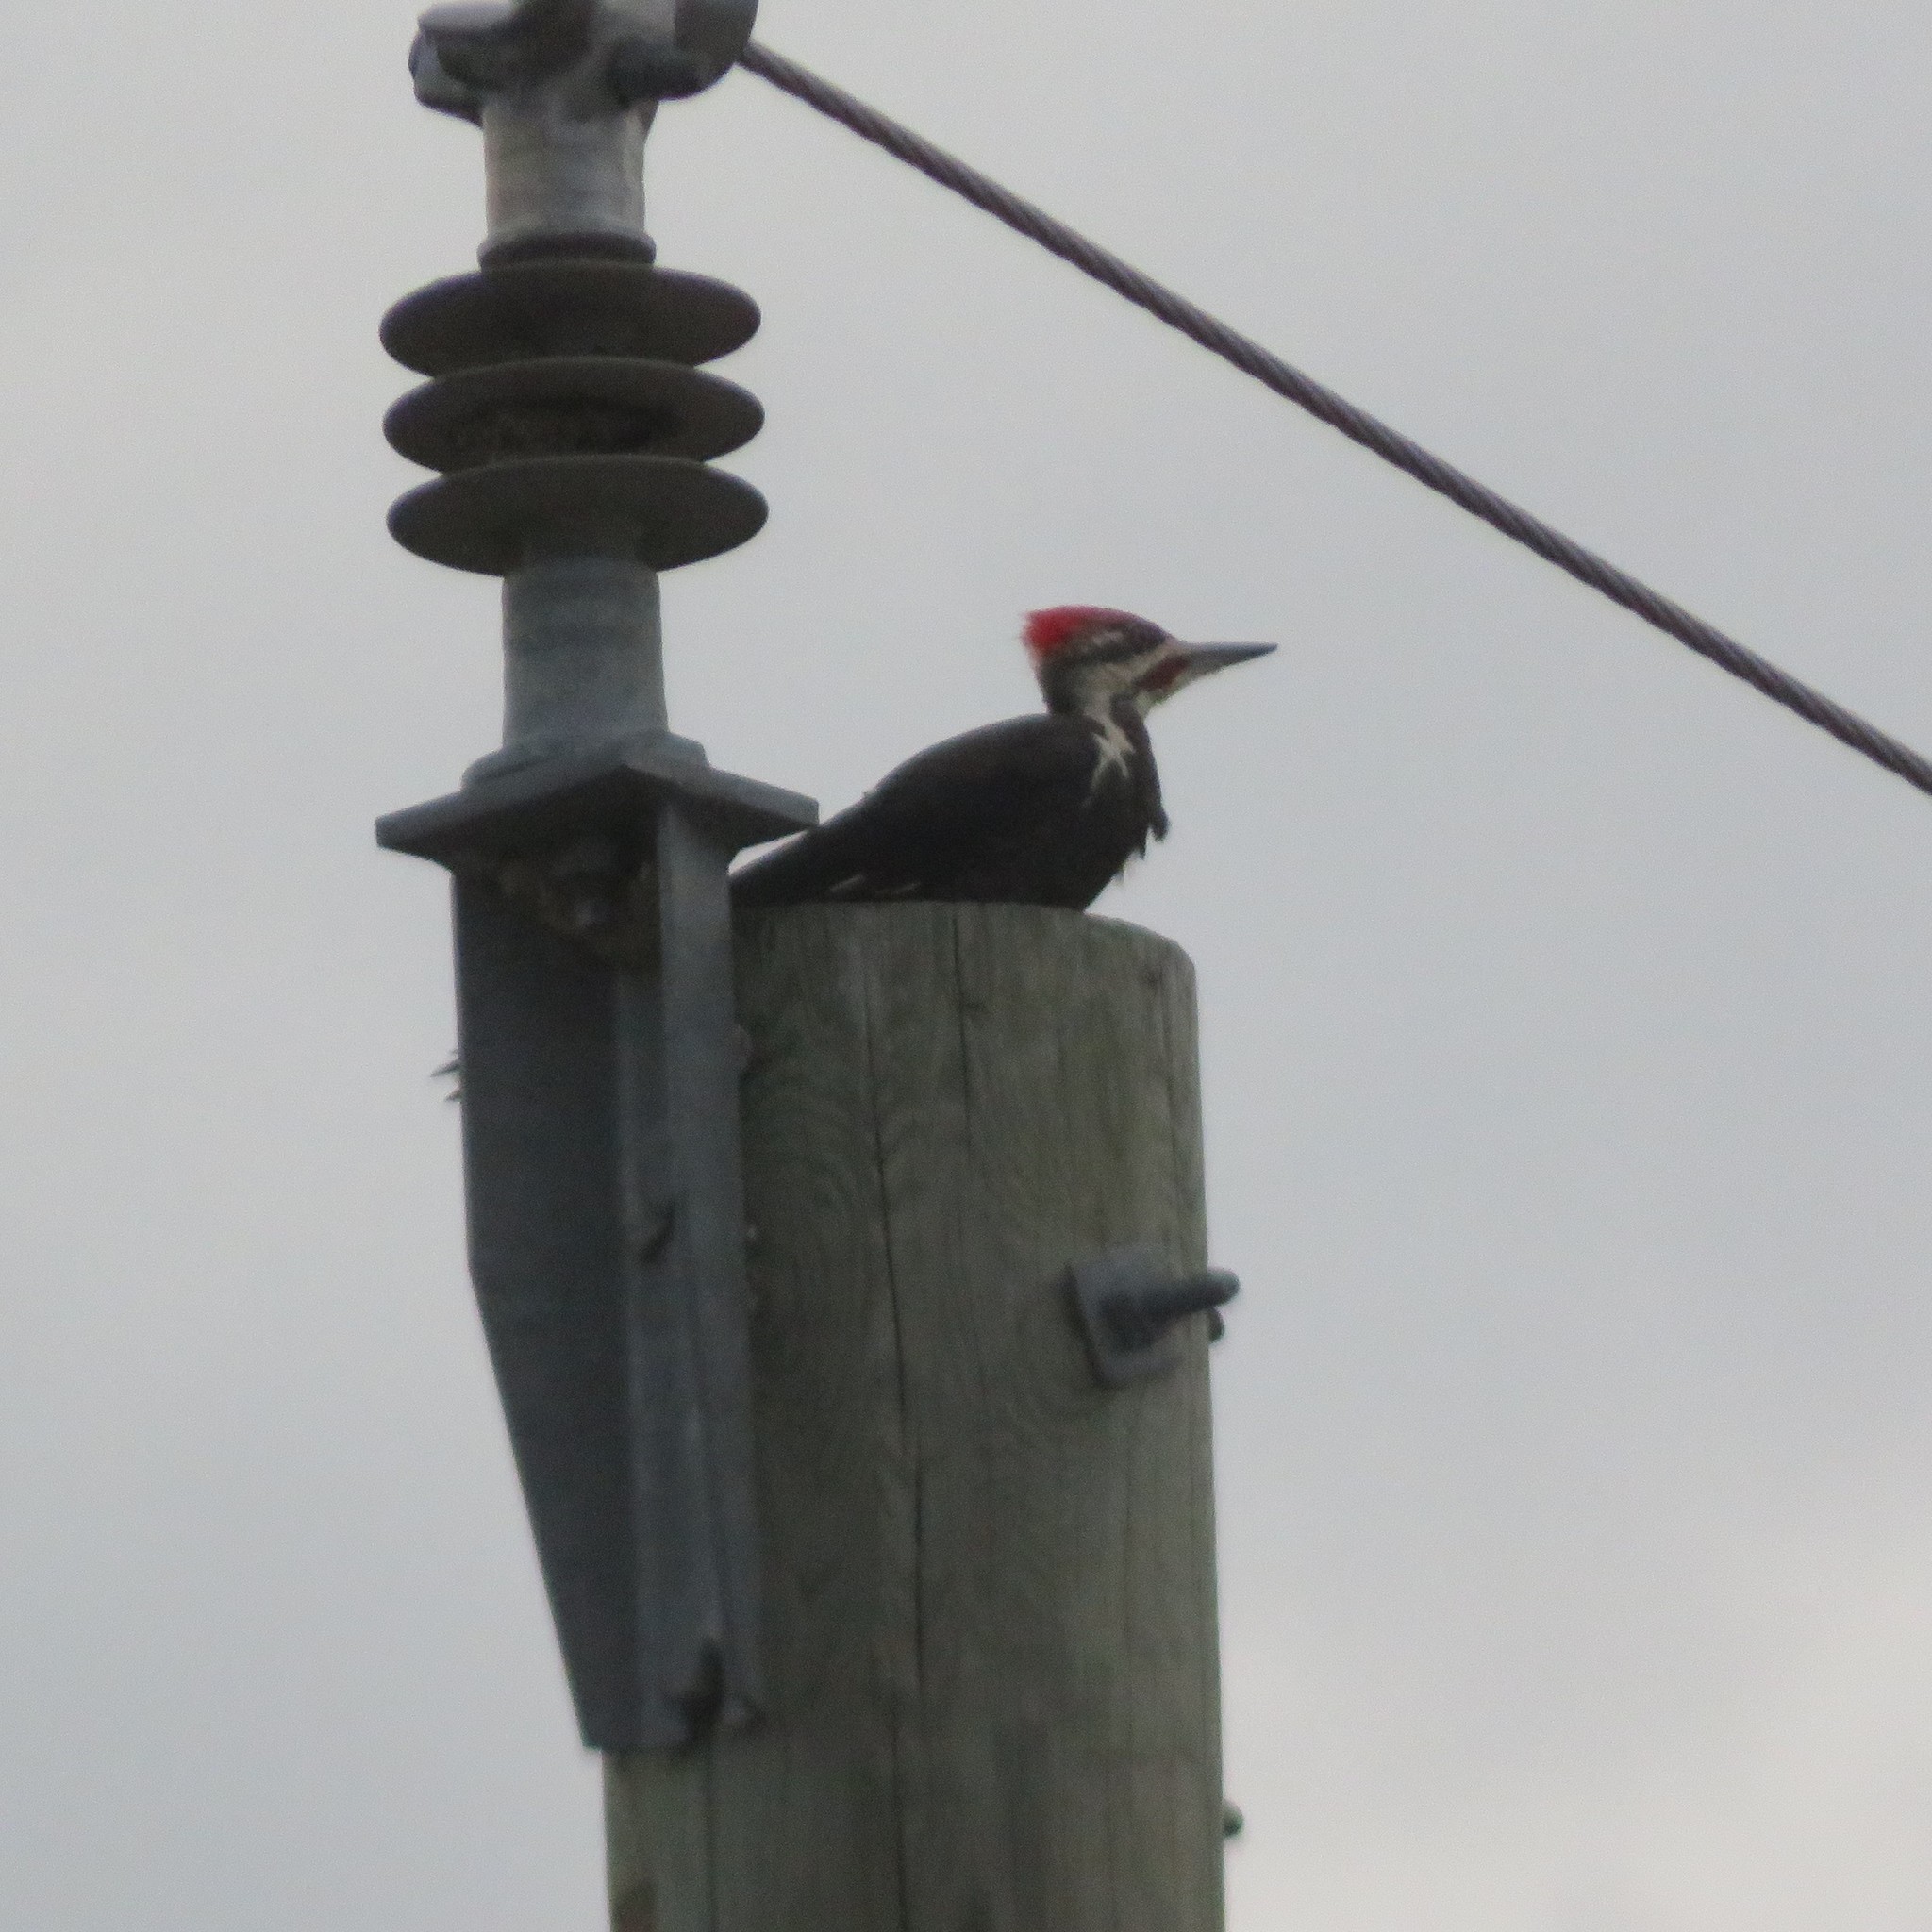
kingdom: Animalia
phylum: Chordata
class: Aves
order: Piciformes
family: Picidae
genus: Dryocopus
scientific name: Dryocopus pileatus
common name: Pileated woodpecker
